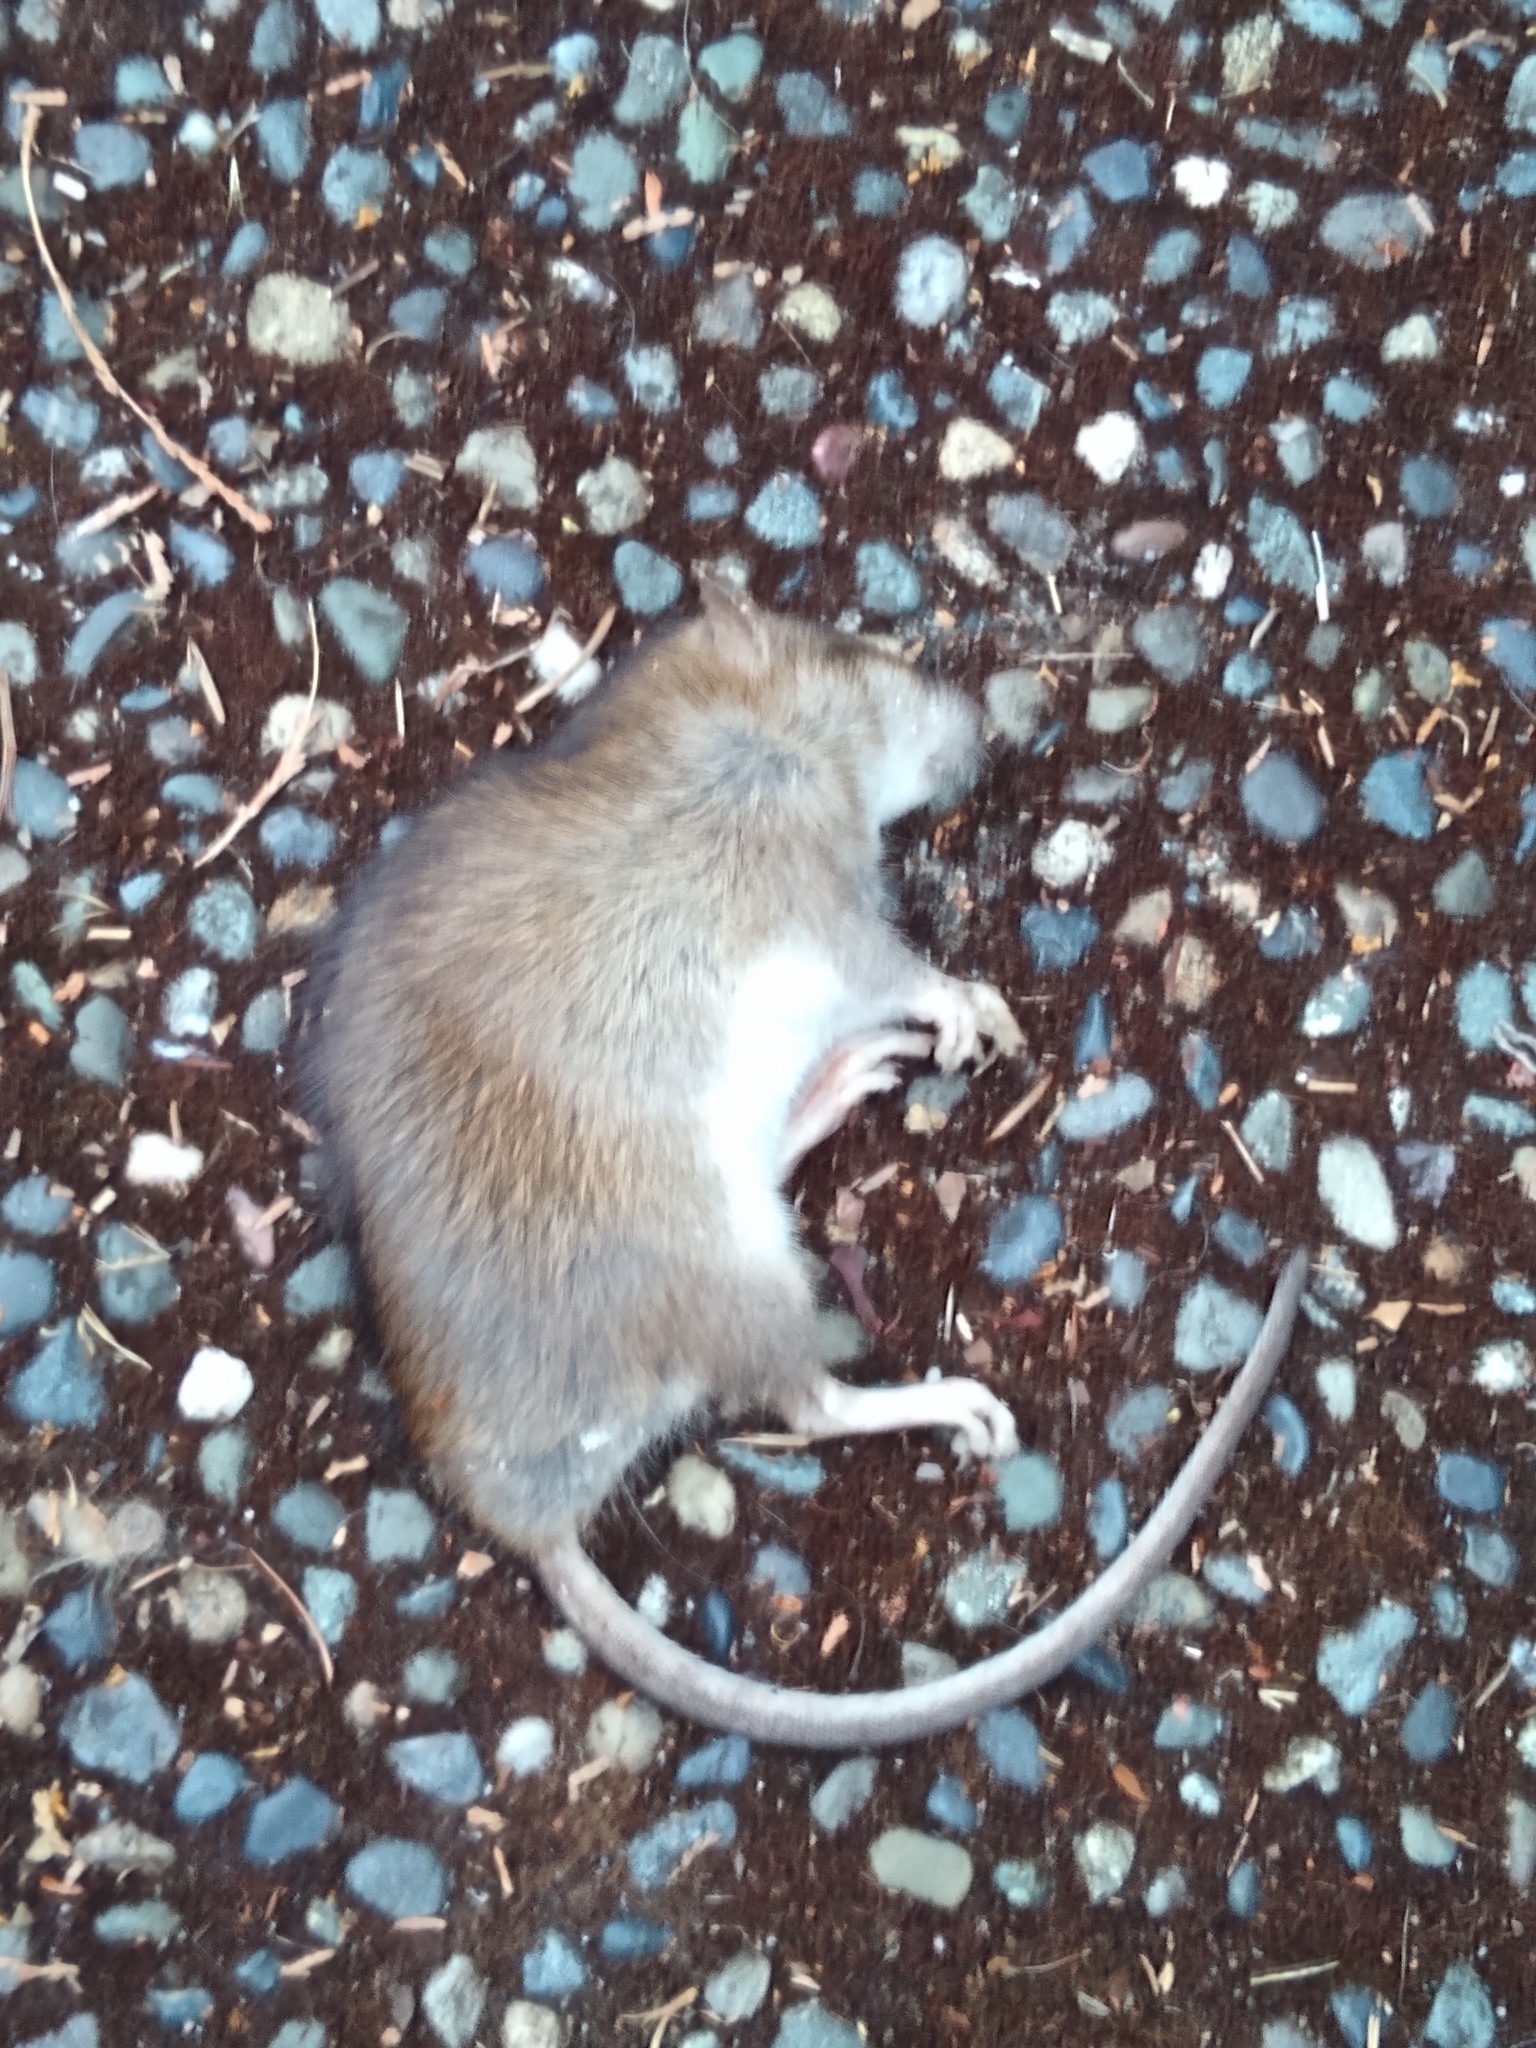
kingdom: Animalia
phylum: Chordata
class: Mammalia
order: Rodentia
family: Muridae
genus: Rattus
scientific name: Rattus norvegicus
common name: Brown rat
